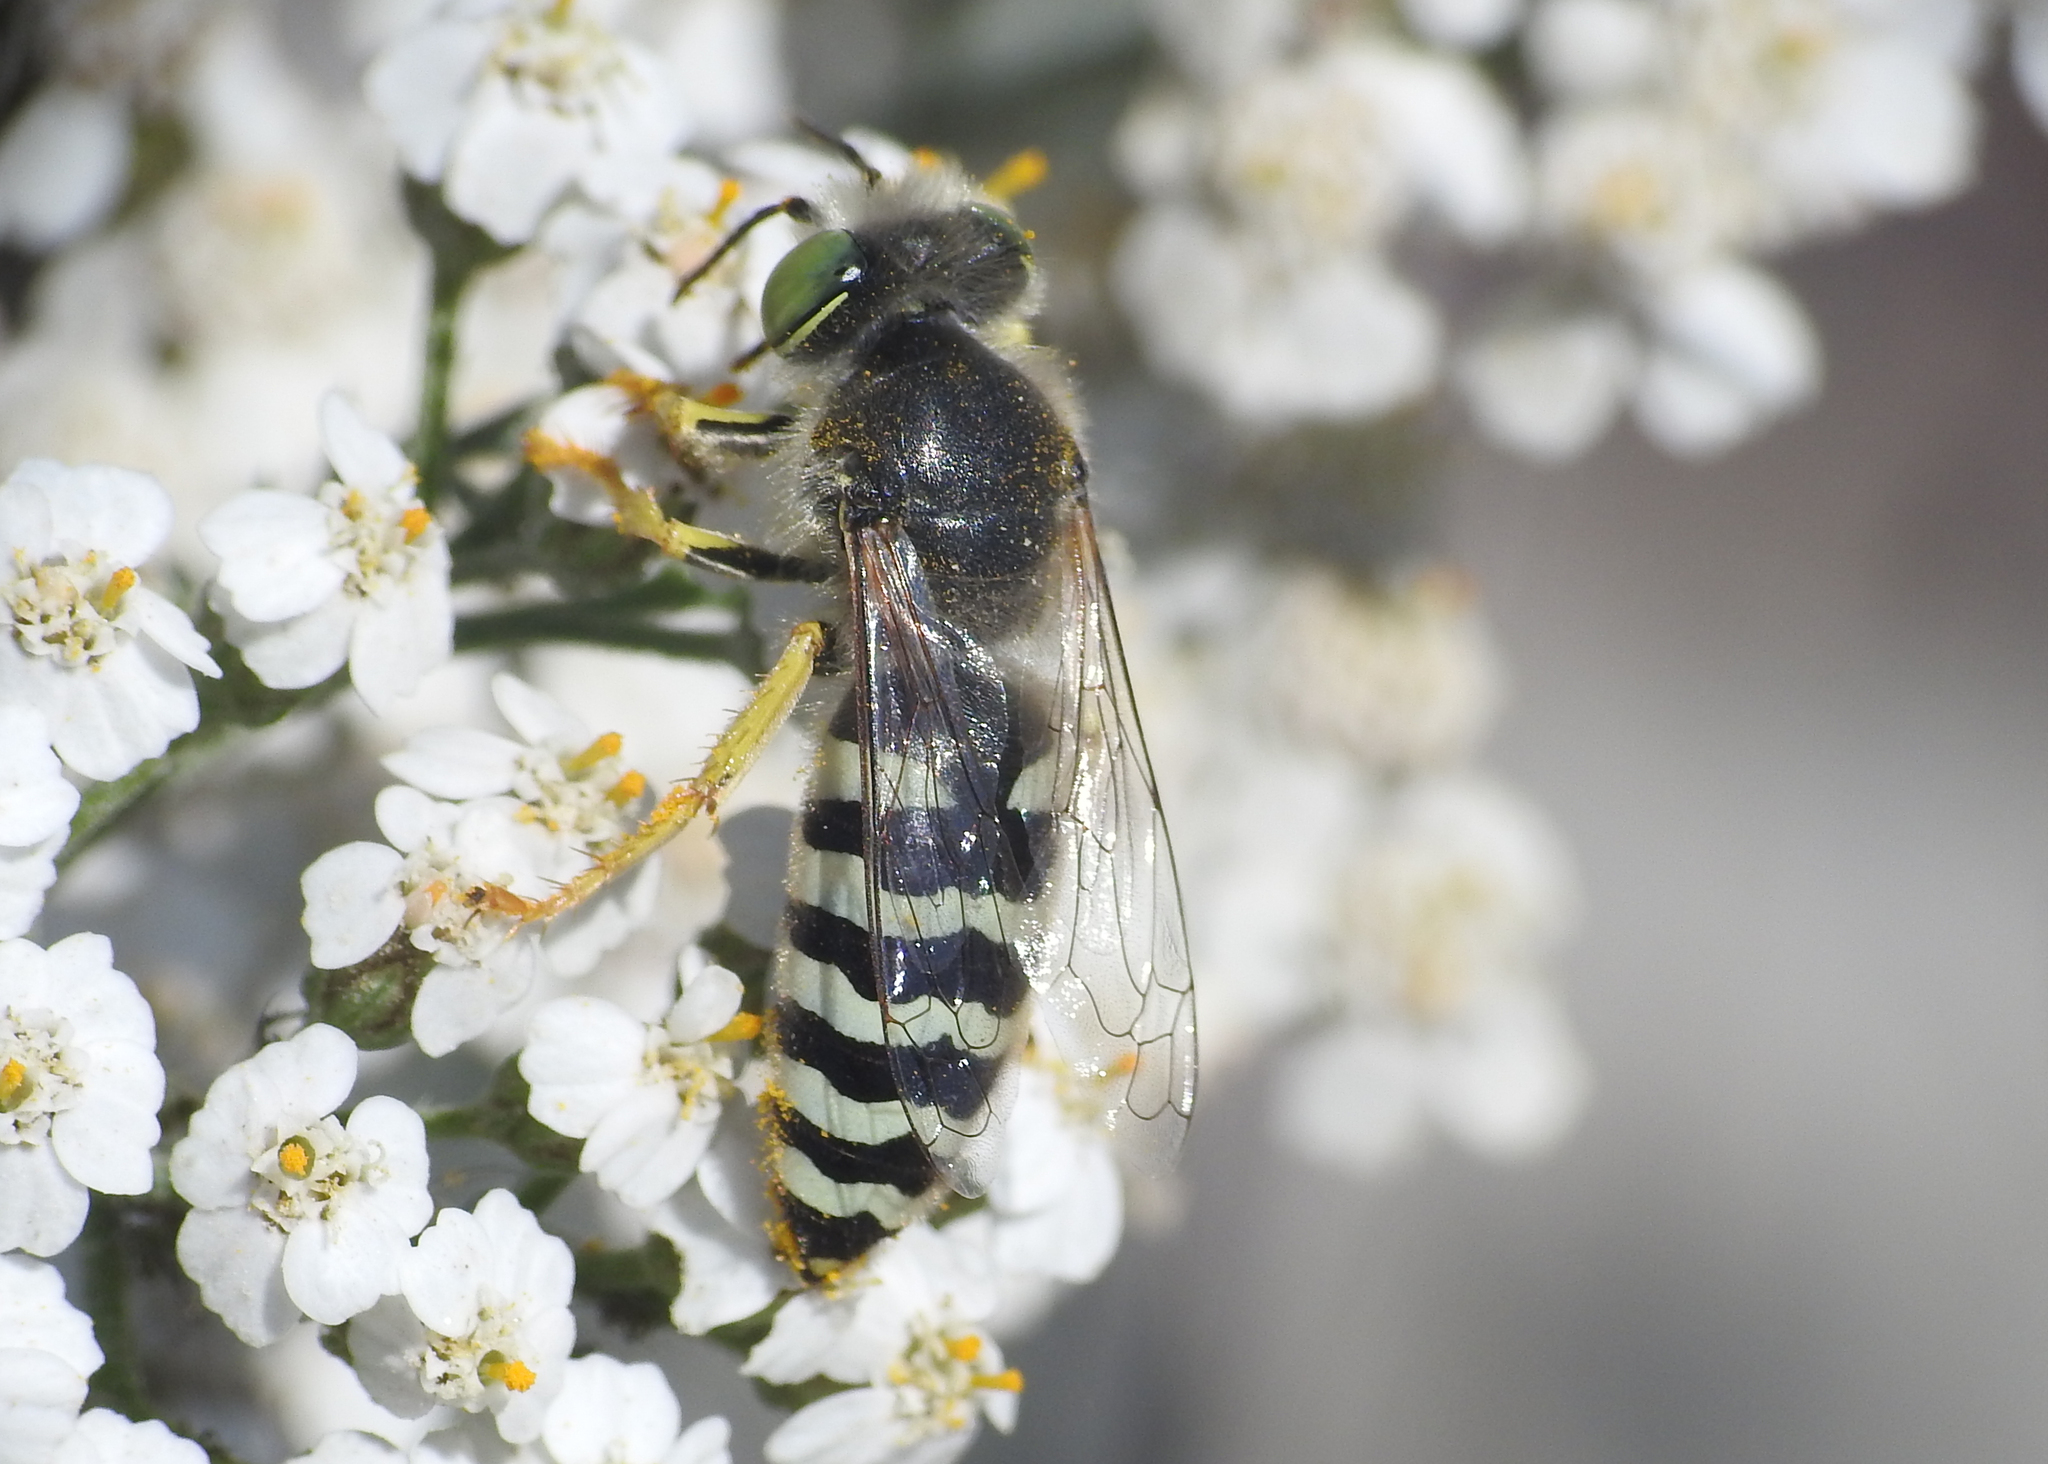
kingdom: Animalia
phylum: Arthropoda
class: Insecta
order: Hymenoptera
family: Crabronidae
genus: Bembix
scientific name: Bembix americana
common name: American sand wasp
